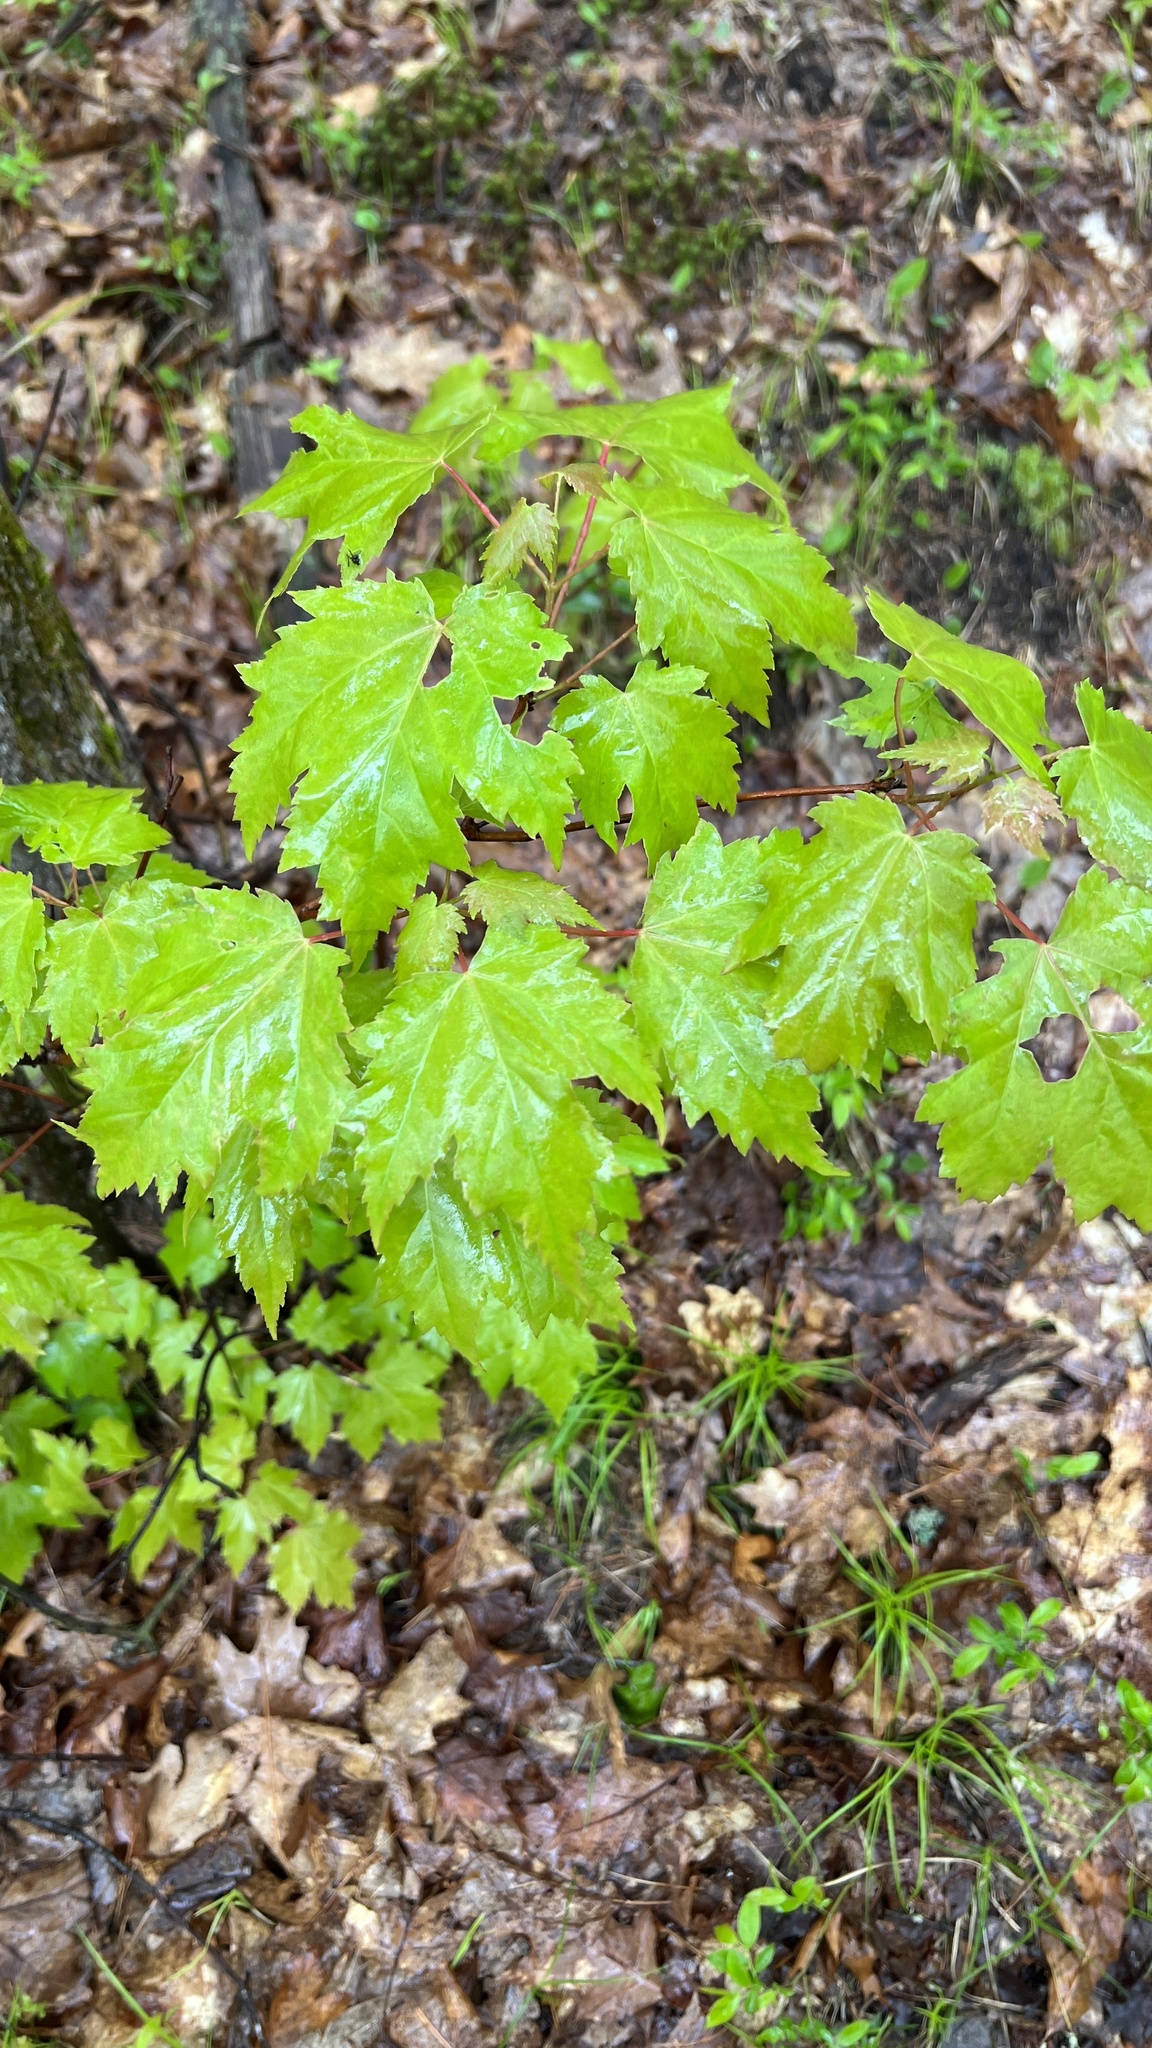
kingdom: Plantae
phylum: Tracheophyta
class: Magnoliopsida
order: Sapindales
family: Sapindaceae
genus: Acer
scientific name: Acer rubrum
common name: Red maple
